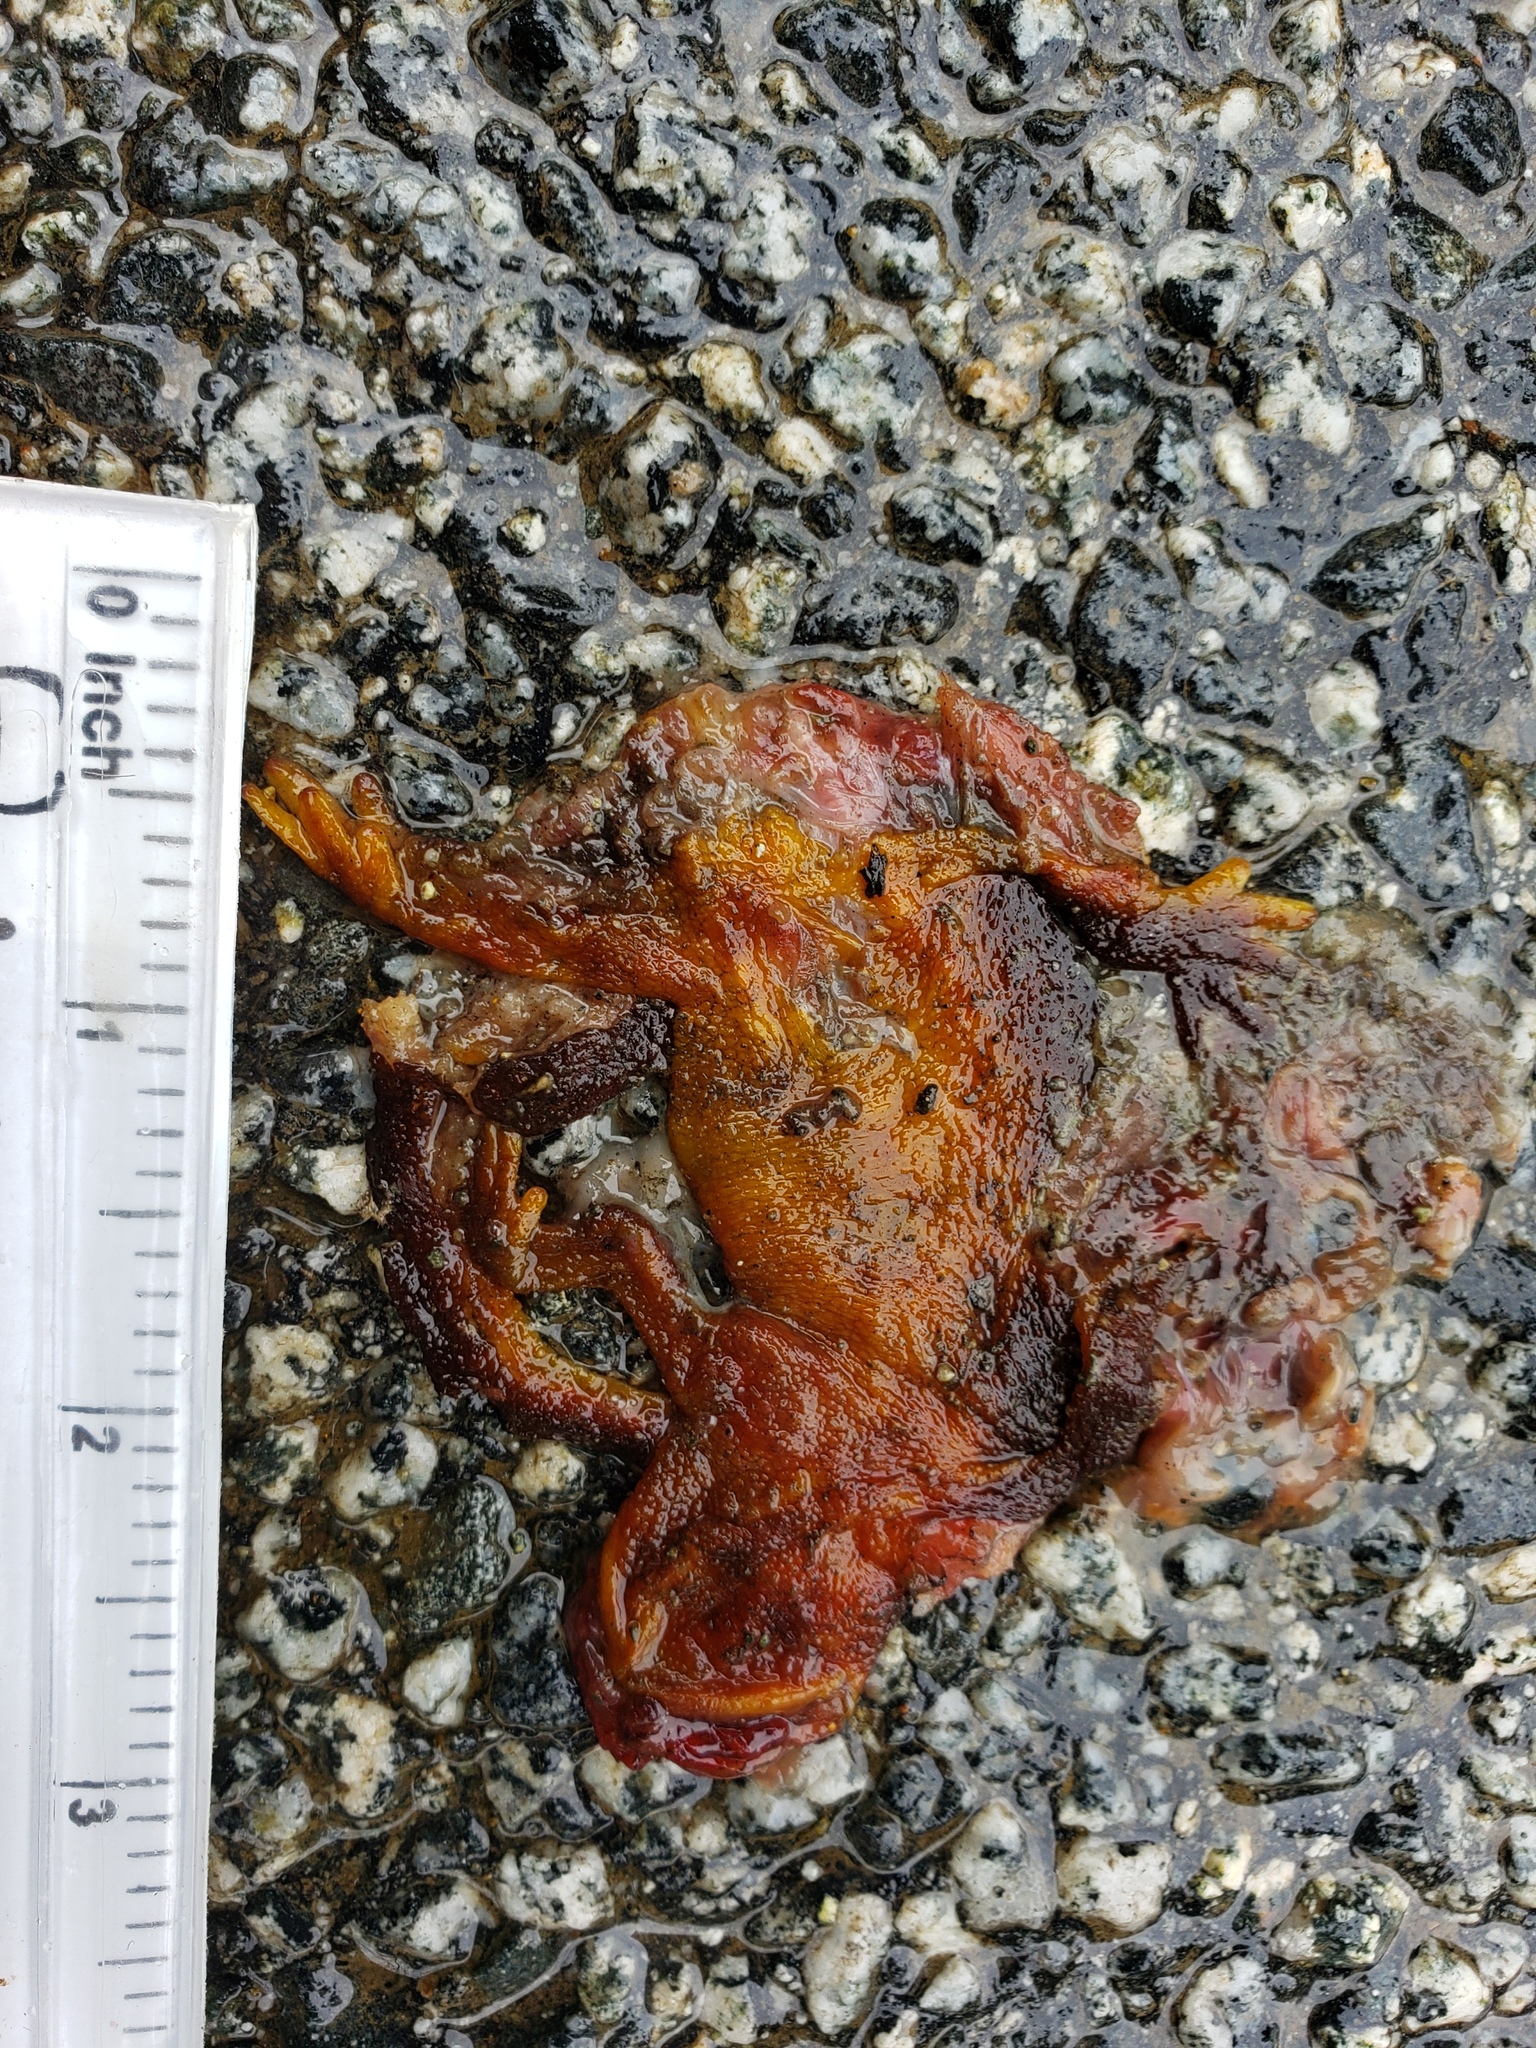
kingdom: Animalia
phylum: Chordata
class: Amphibia
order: Caudata
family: Salamandridae
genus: Taricha
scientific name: Taricha
